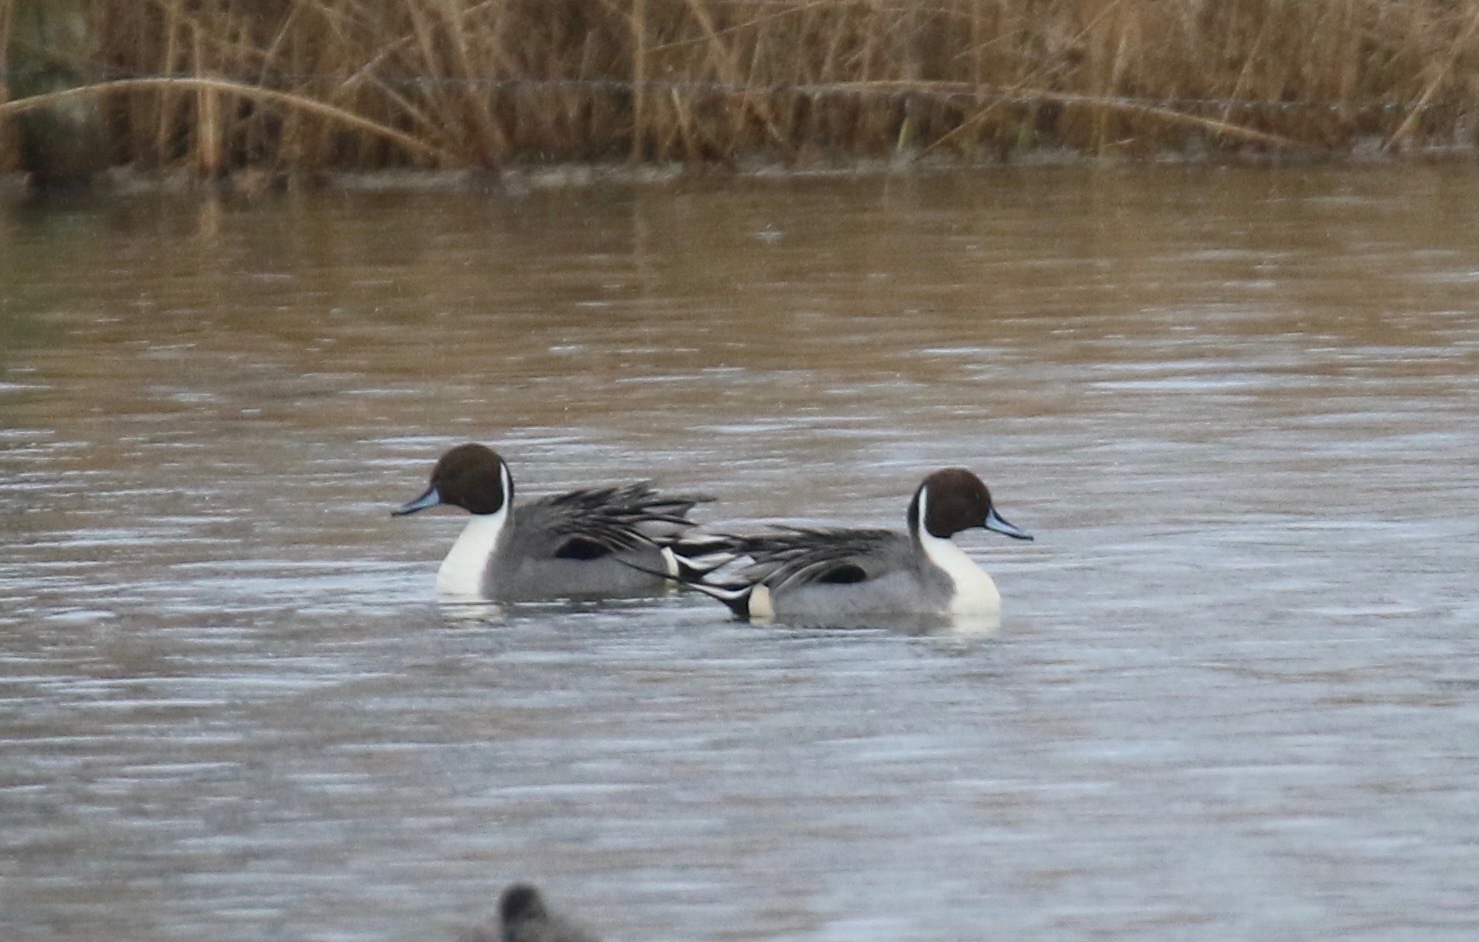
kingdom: Animalia
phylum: Chordata
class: Aves
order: Anseriformes
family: Anatidae
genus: Anas
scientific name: Anas acuta
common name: Northern pintail
